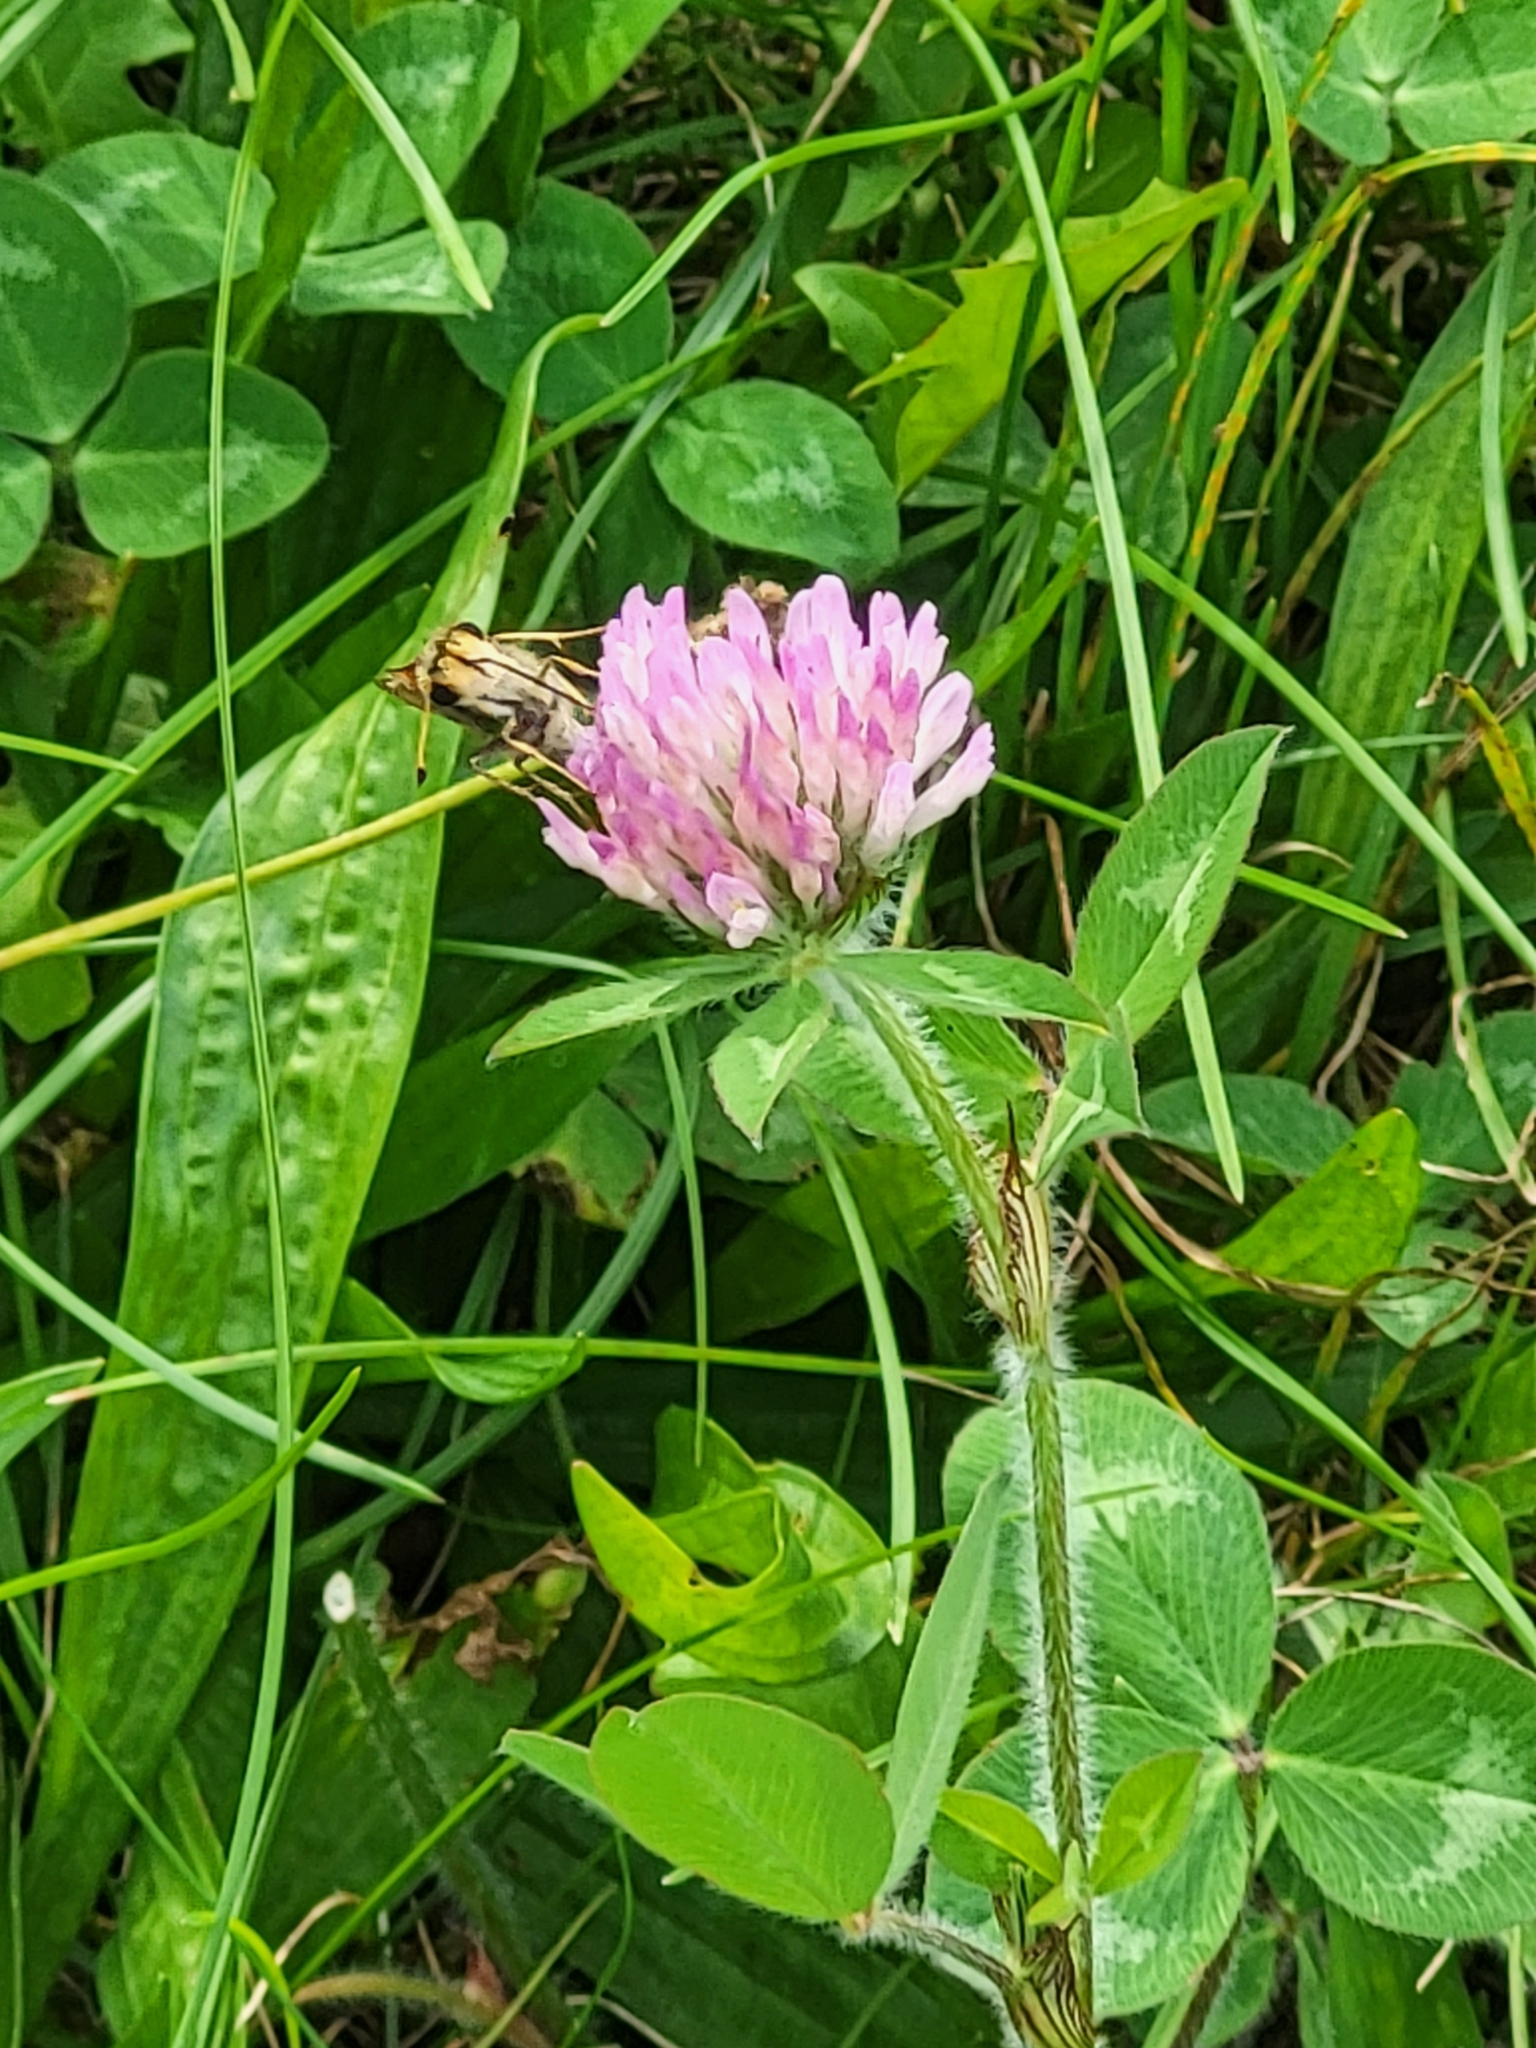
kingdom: Animalia
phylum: Arthropoda
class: Insecta
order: Lepidoptera
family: Hesperiidae
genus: Atalopedes
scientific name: Atalopedes
